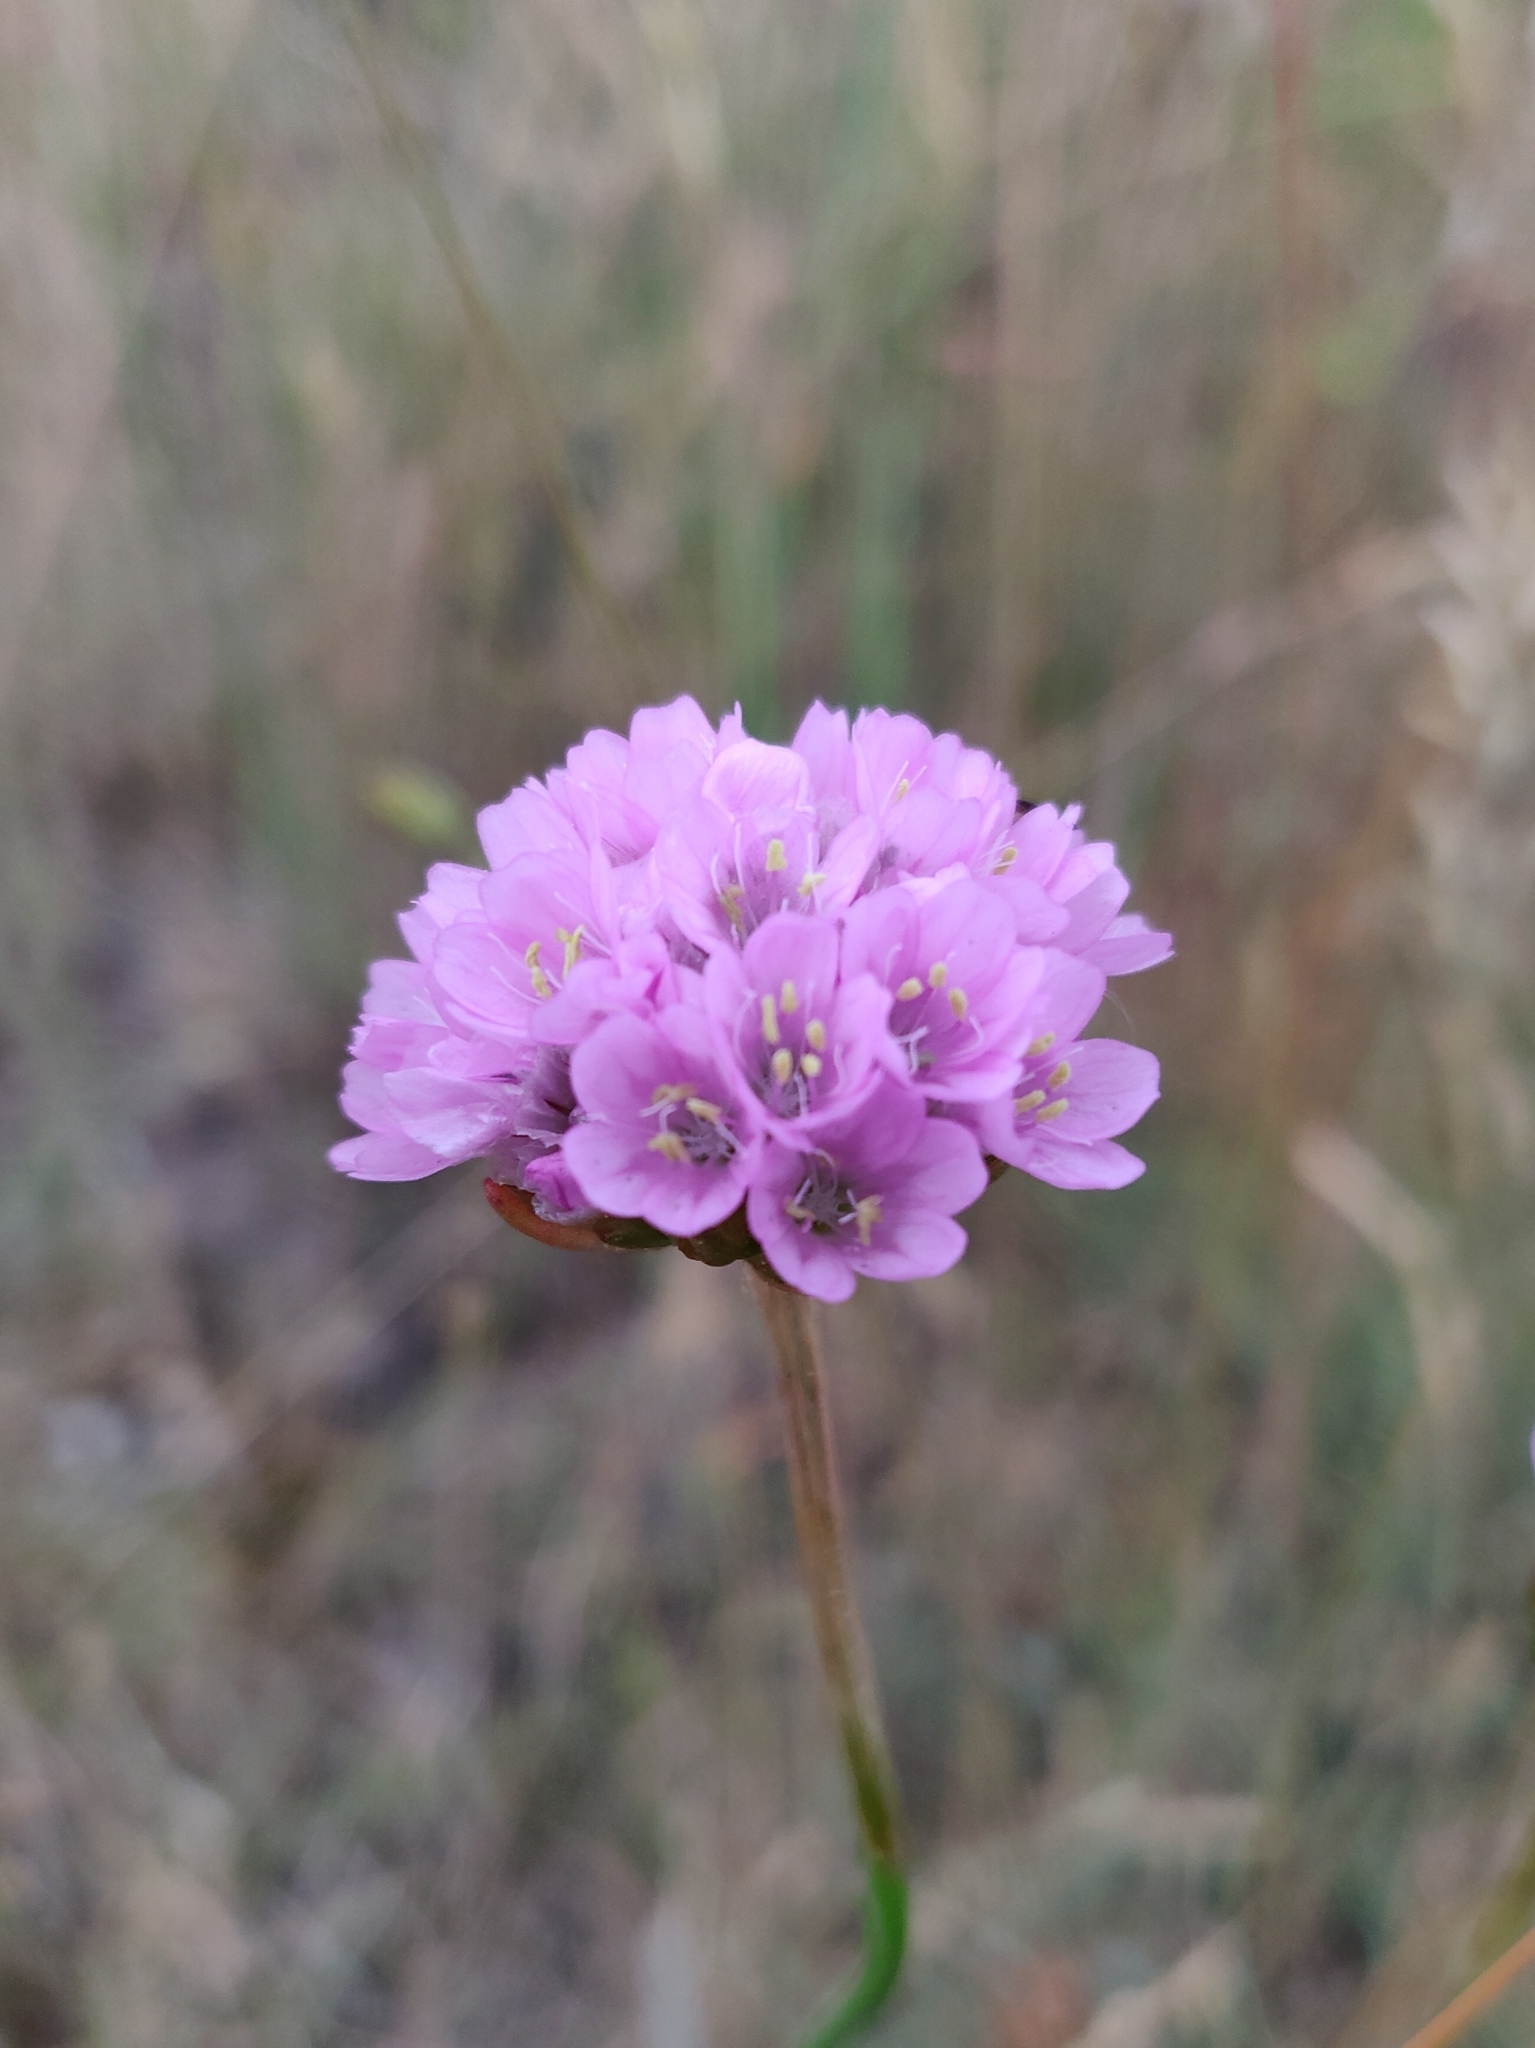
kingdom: Plantae
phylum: Tracheophyta
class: Magnoliopsida
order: Caryophyllales
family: Plumbaginaceae
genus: Armeria
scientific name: Armeria maritima
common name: Thrift
